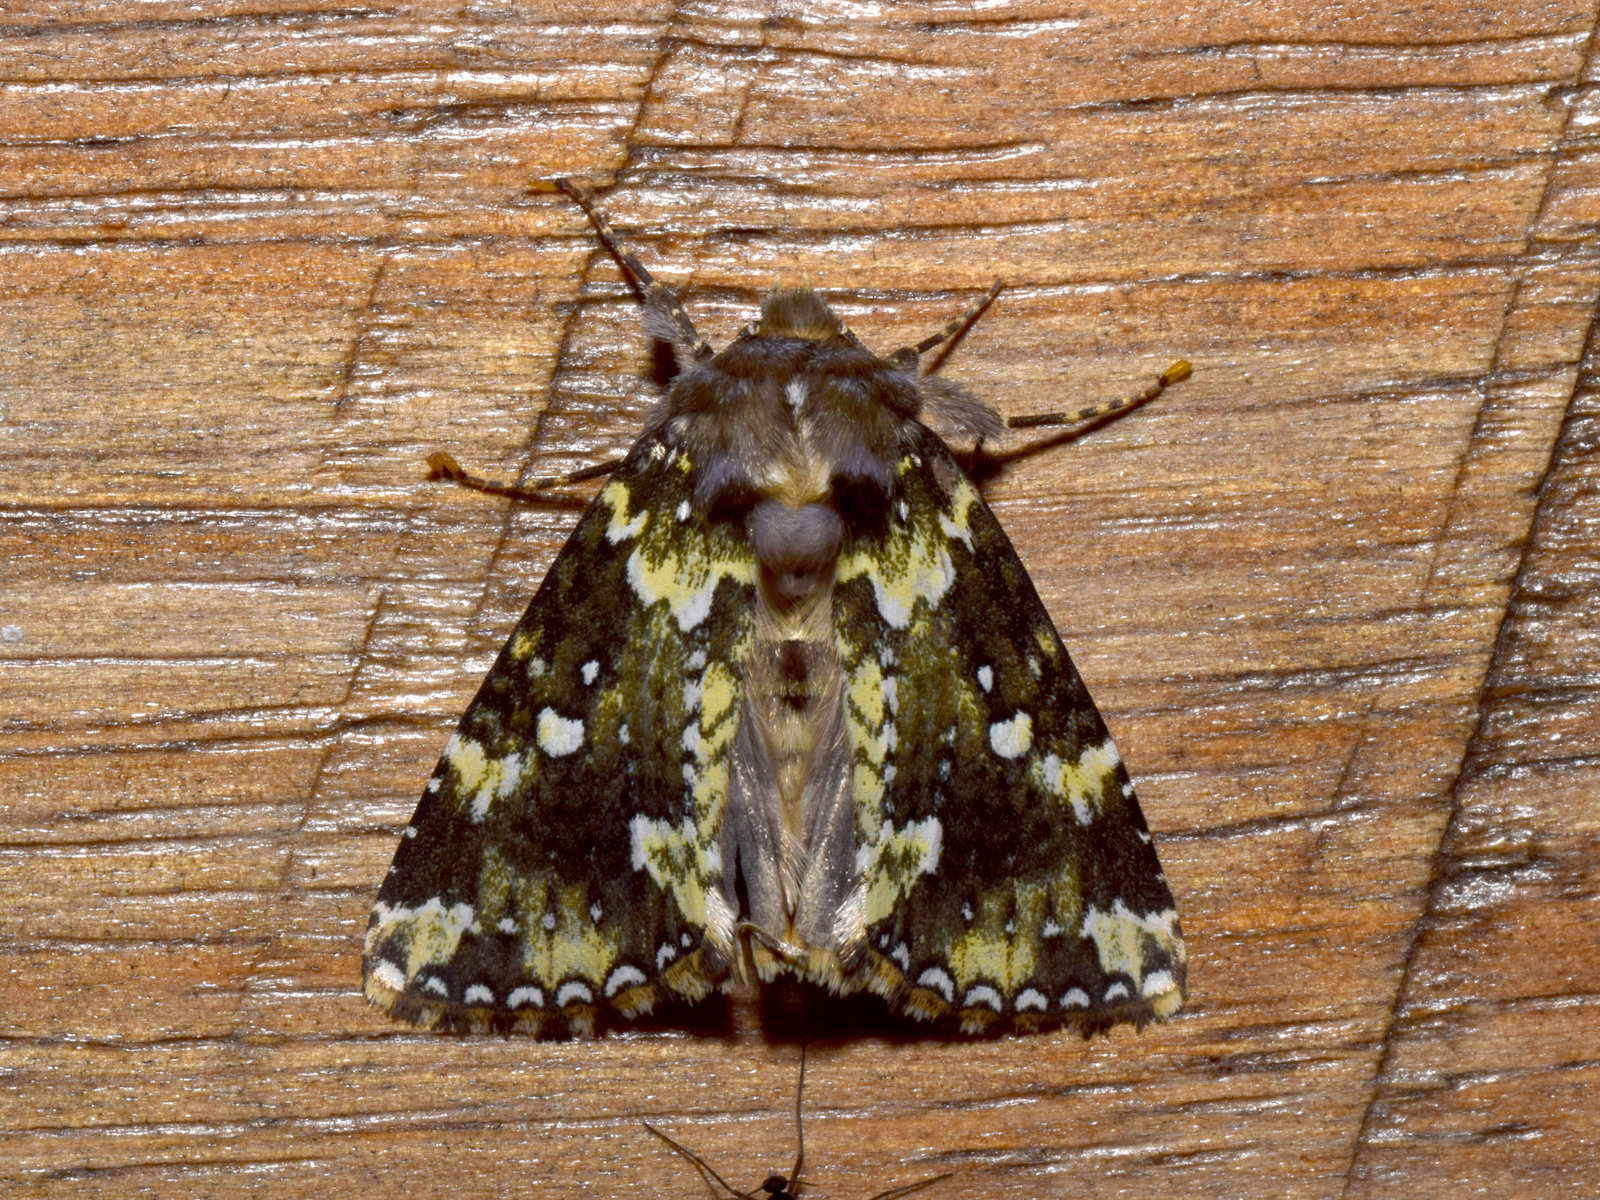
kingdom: Animalia
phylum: Arthropoda
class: Insecta
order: Lepidoptera
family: Drepanidae
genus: Gaurena
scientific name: Gaurena florens
